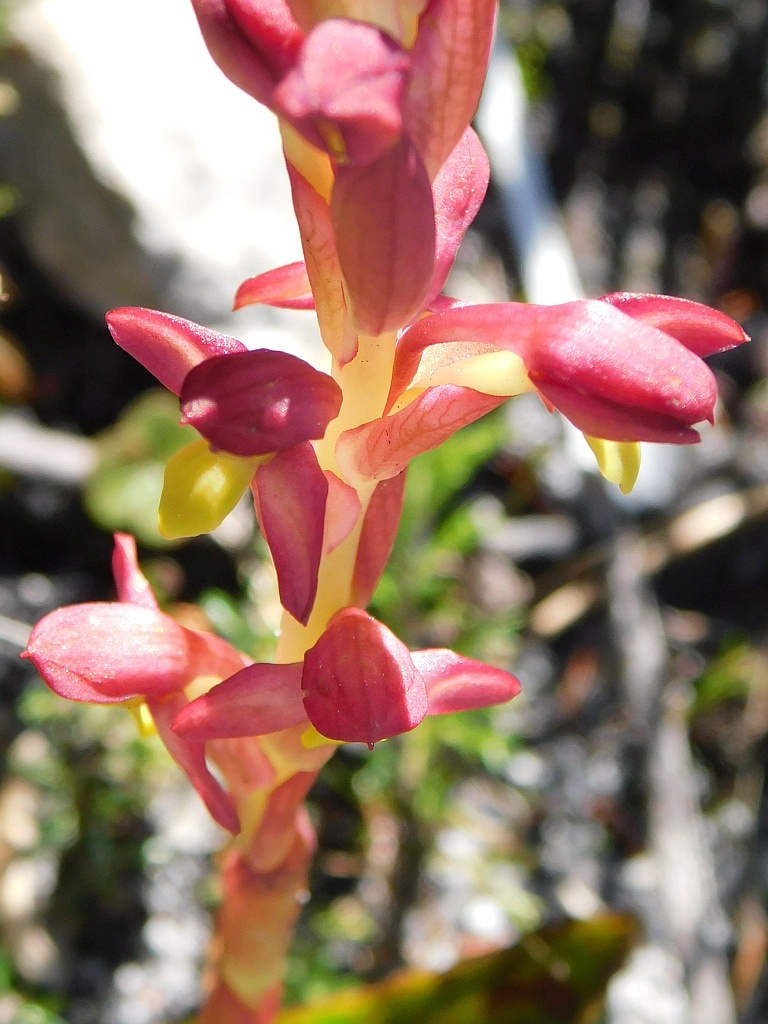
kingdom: Plantae
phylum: Tracheophyta
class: Liliopsida
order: Asparagales
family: Orchidaceae
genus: Disa
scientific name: Disa comosa
